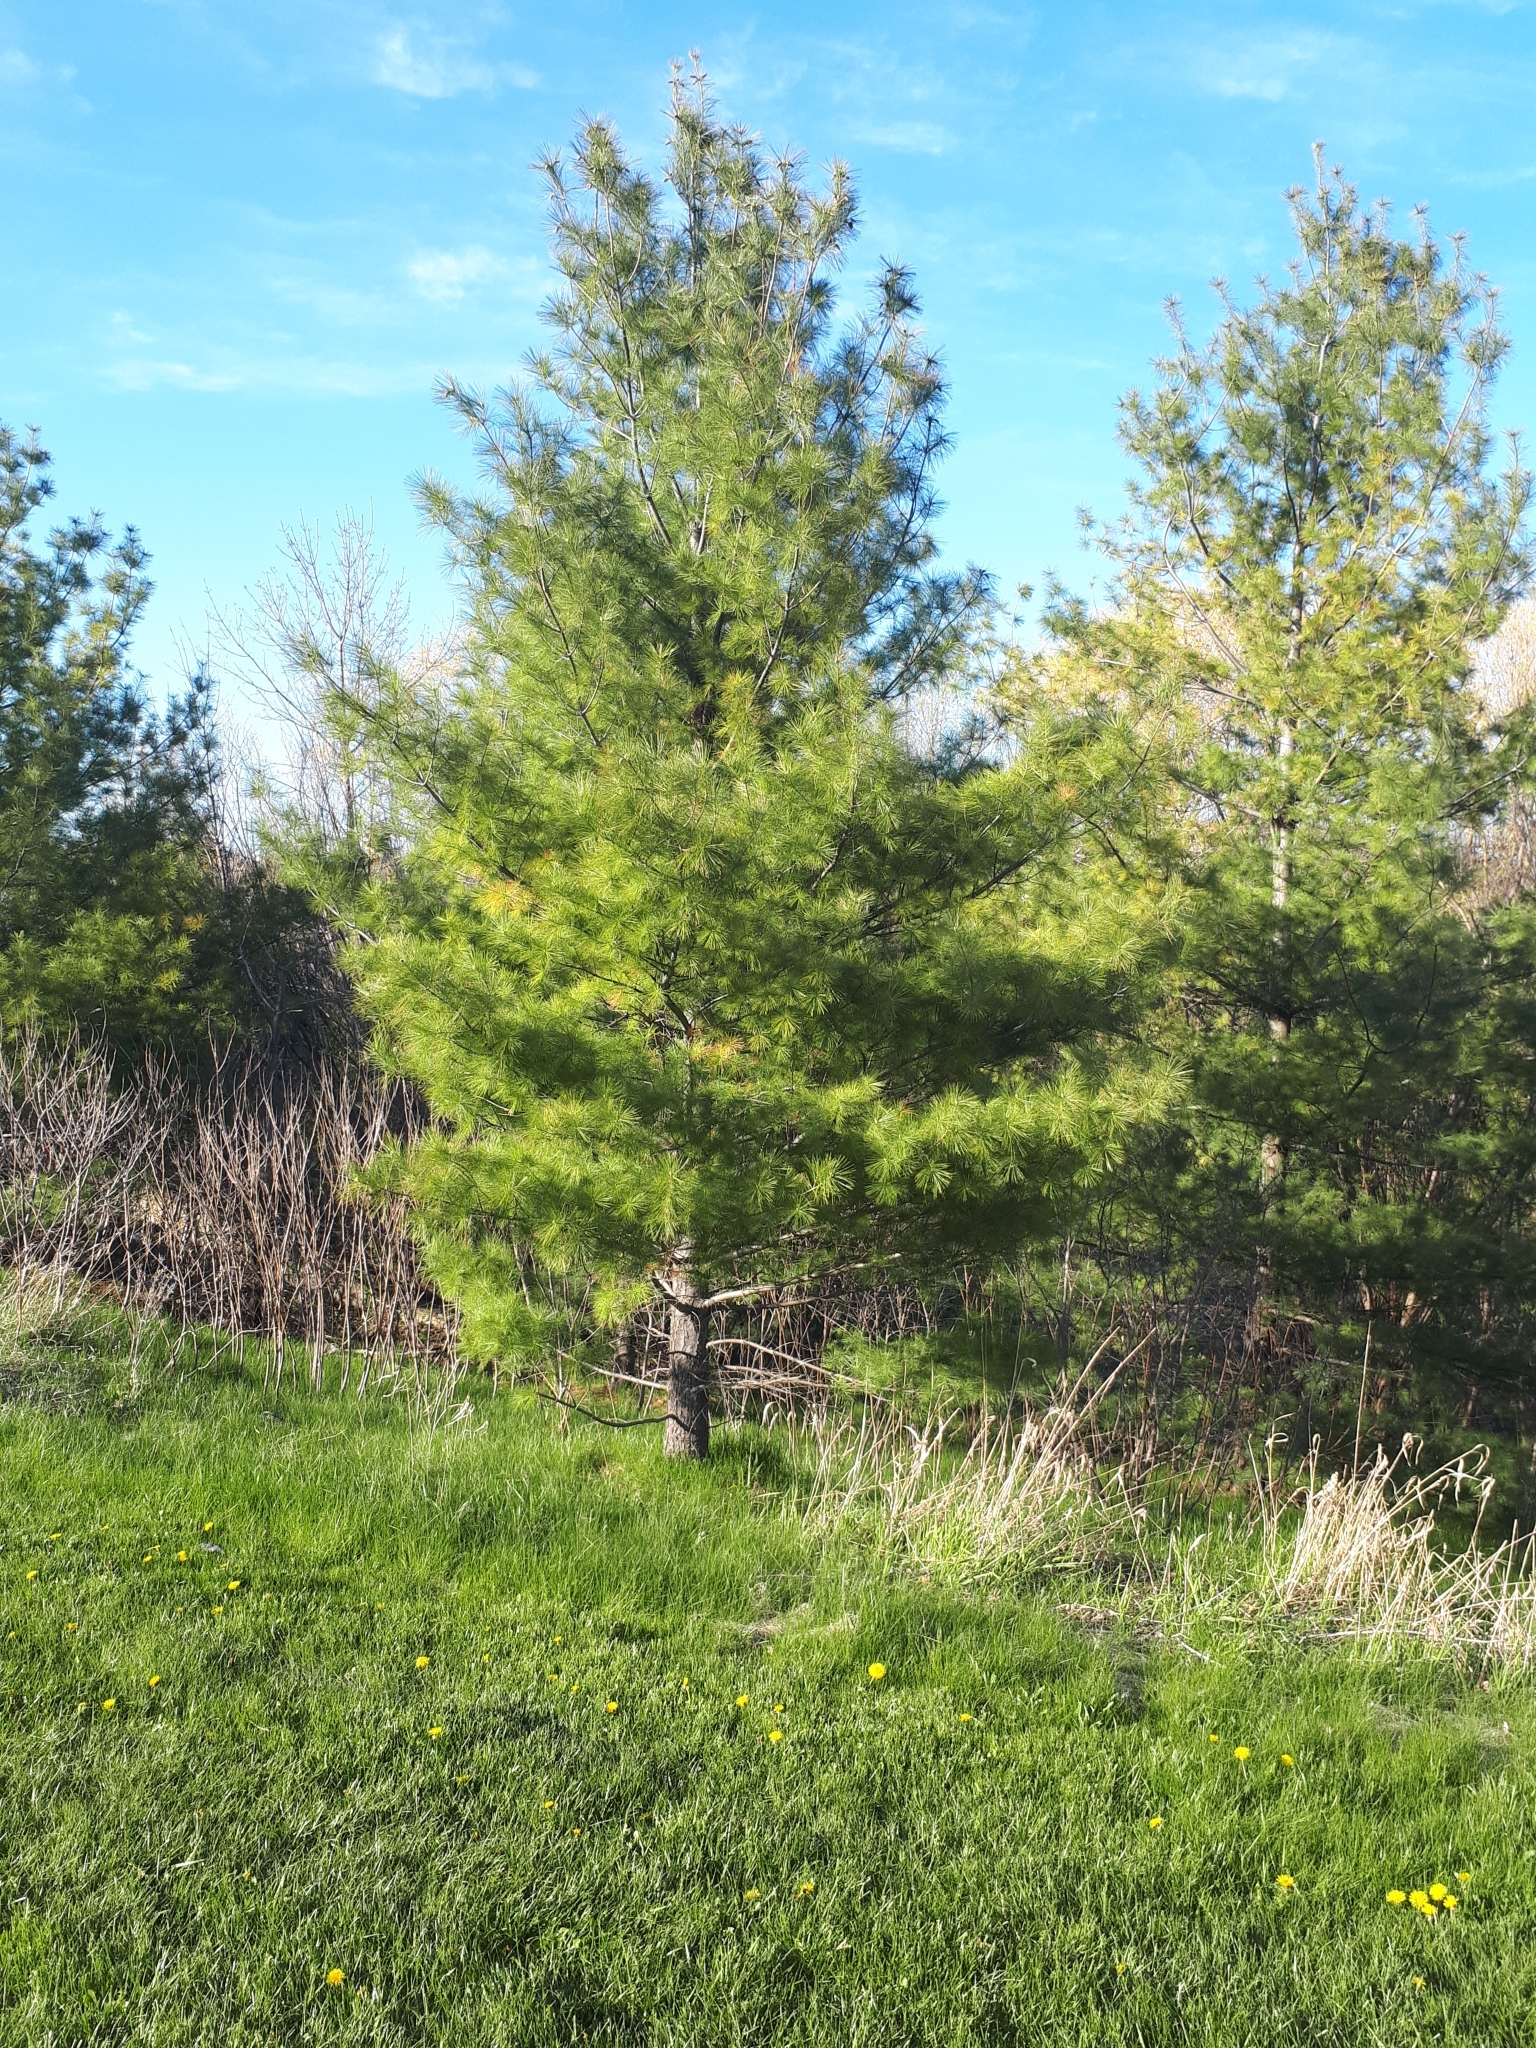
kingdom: Plantae
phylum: Tracheophyta
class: Pinopsida
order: Pinales
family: Pinaceae
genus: Pinus
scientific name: Pinus strobus
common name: Weymouth pine
